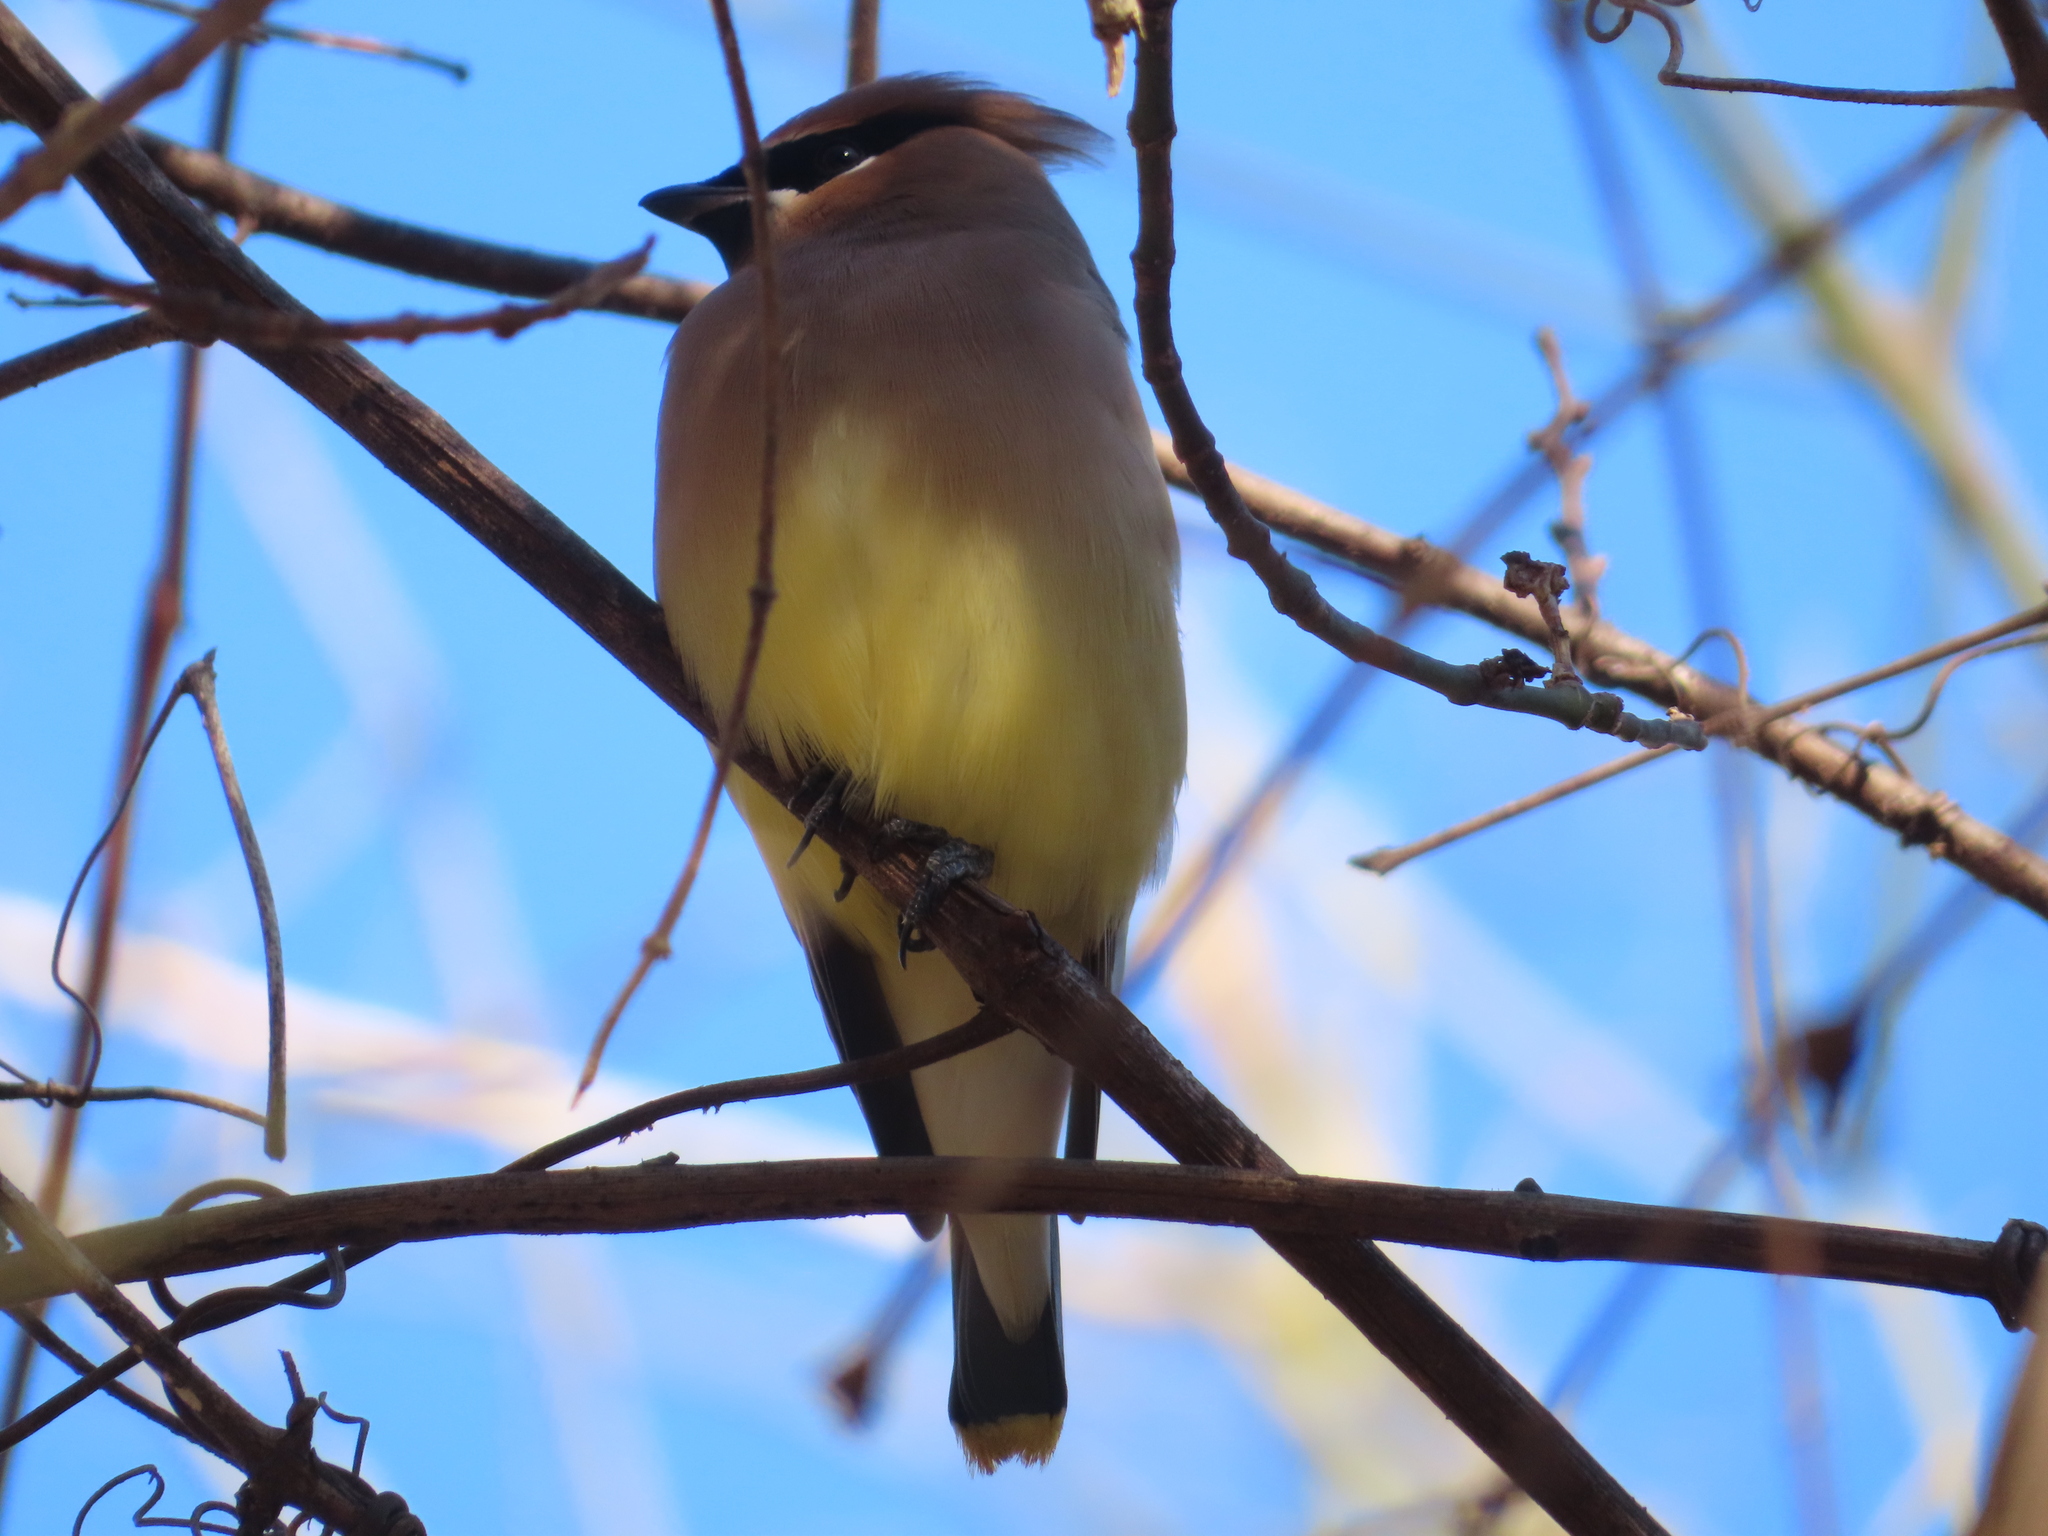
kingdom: Animalia
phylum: Chordata
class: Aves
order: Passeriformes
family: Bombycillidae
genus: Bombycilla
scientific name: Bombycilla cedrorum
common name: Cedar waxwing
